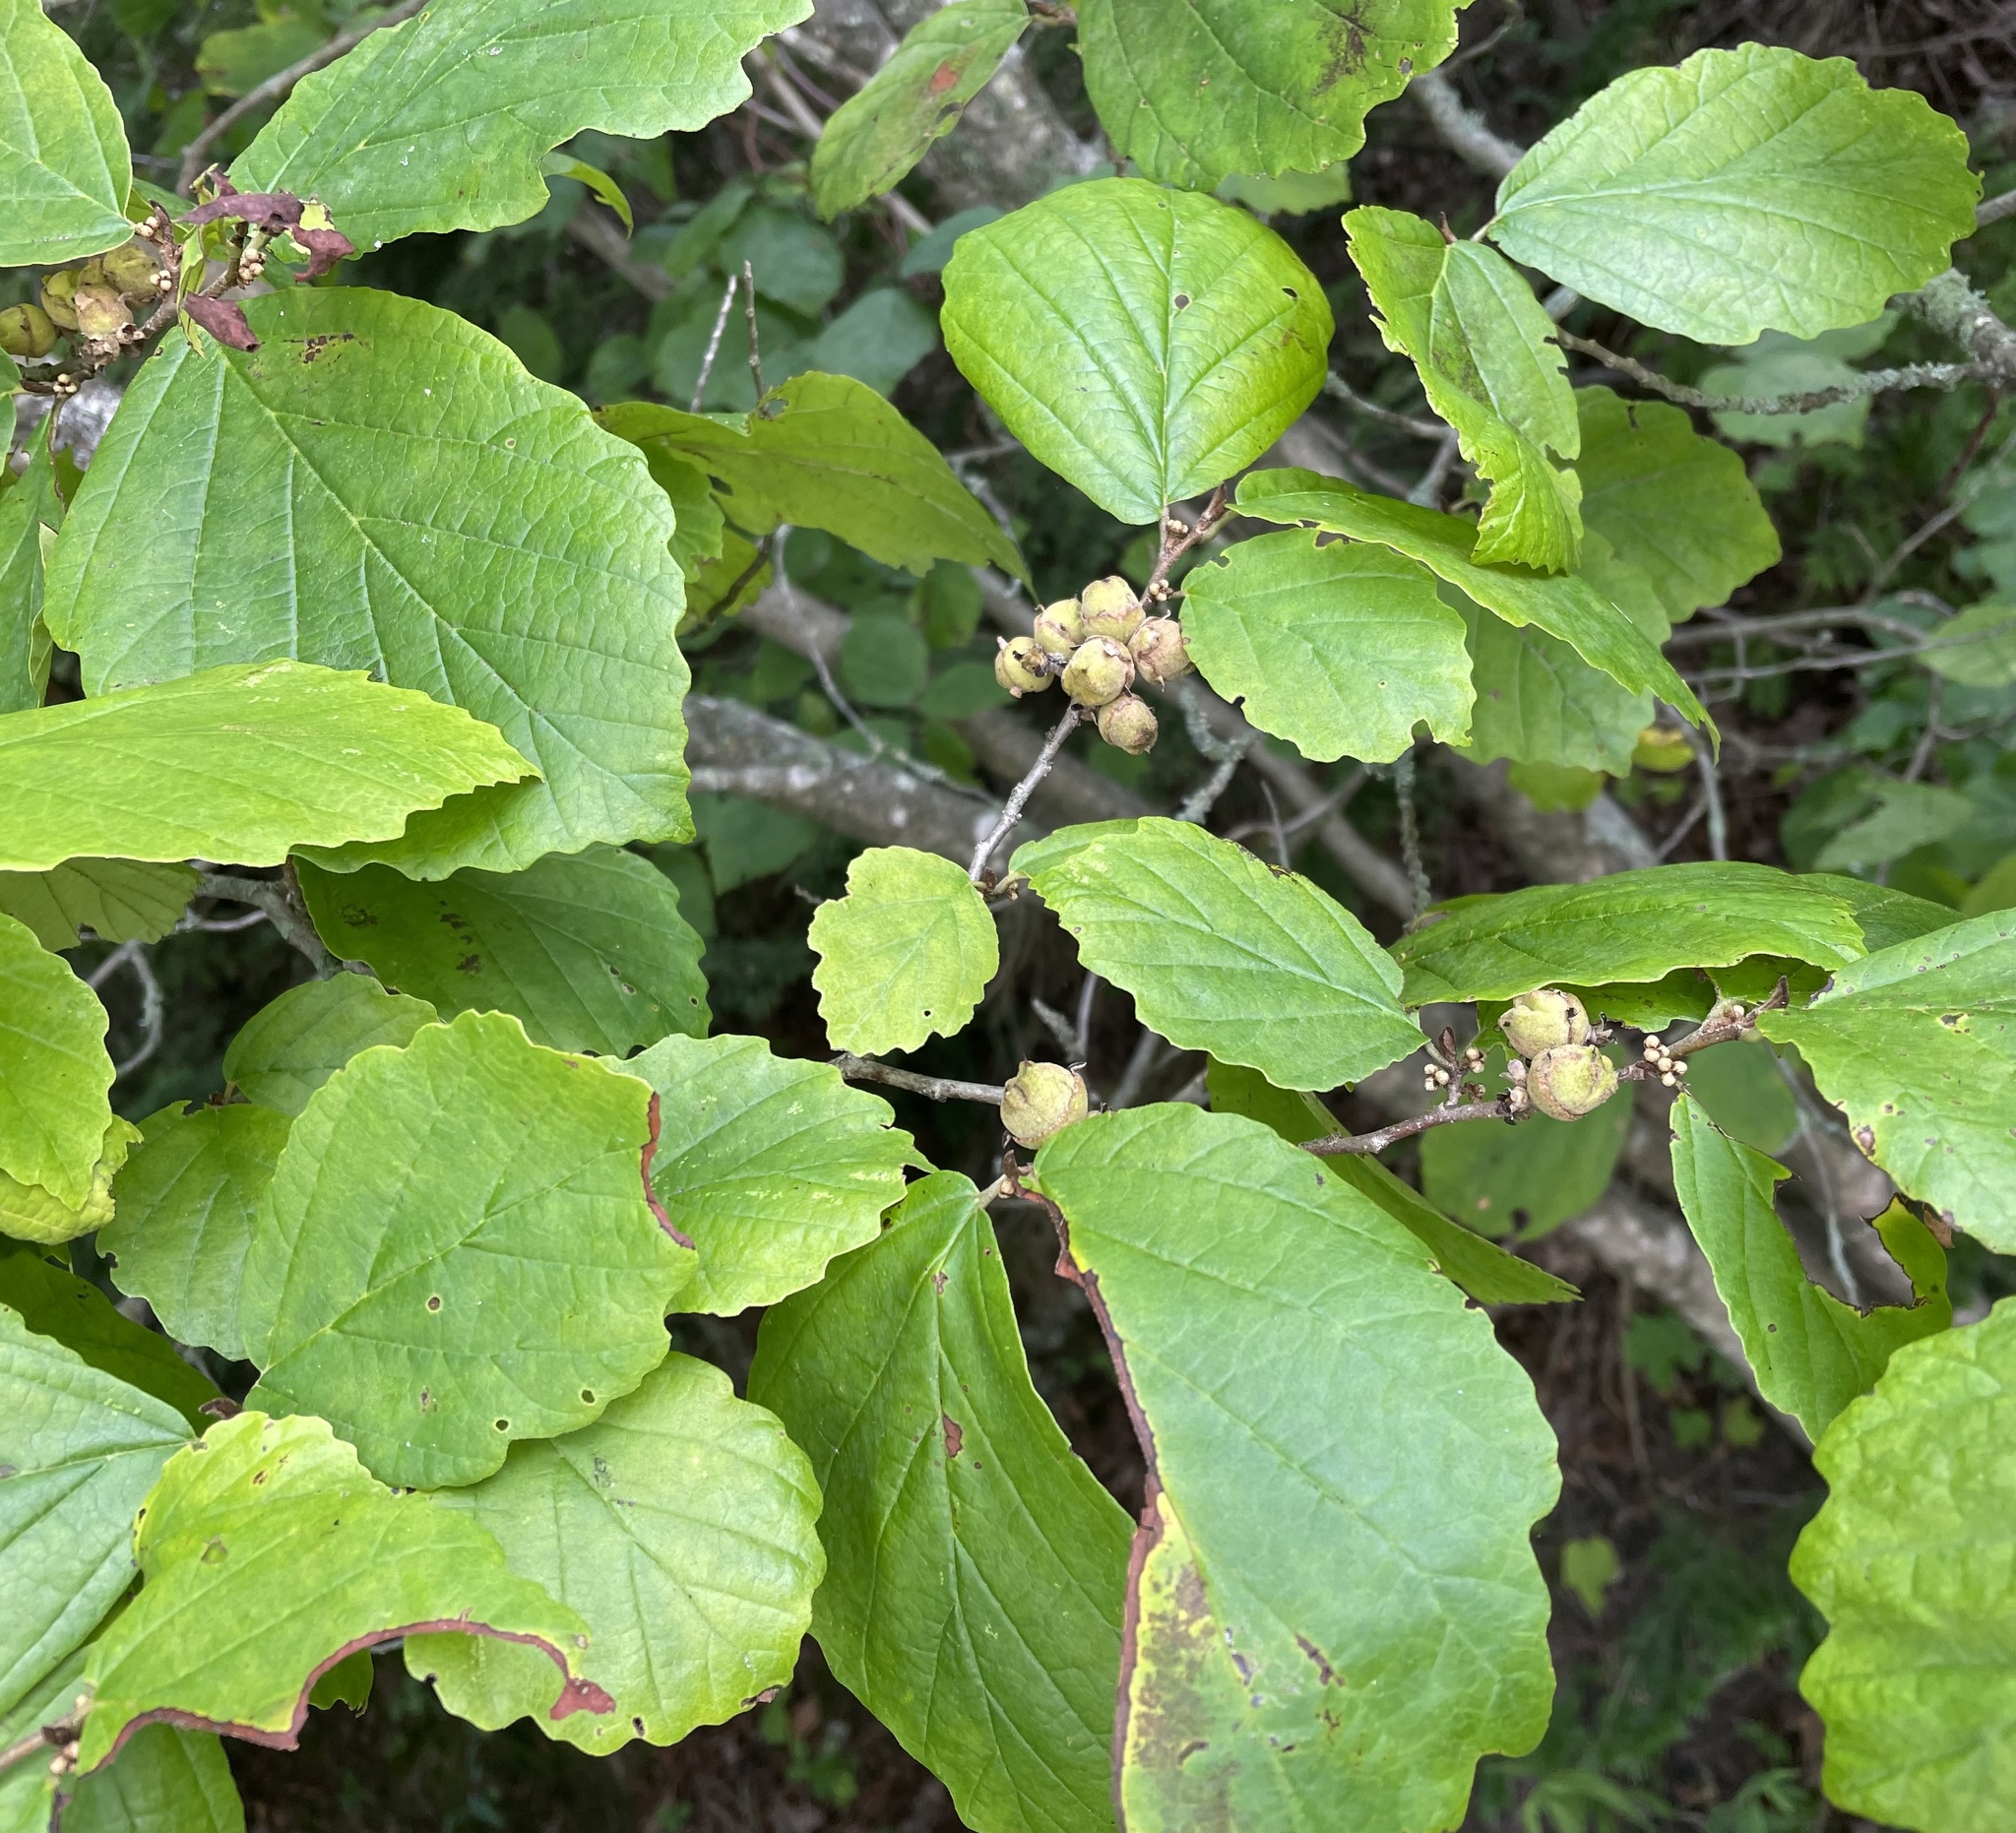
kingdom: Plantae
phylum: Tracheophyta
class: Magnoliopsida
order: Saxifragales
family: Hamamelidaceae
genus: Hamamelis
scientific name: Hamamelis virginiana
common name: Witch-hazel
